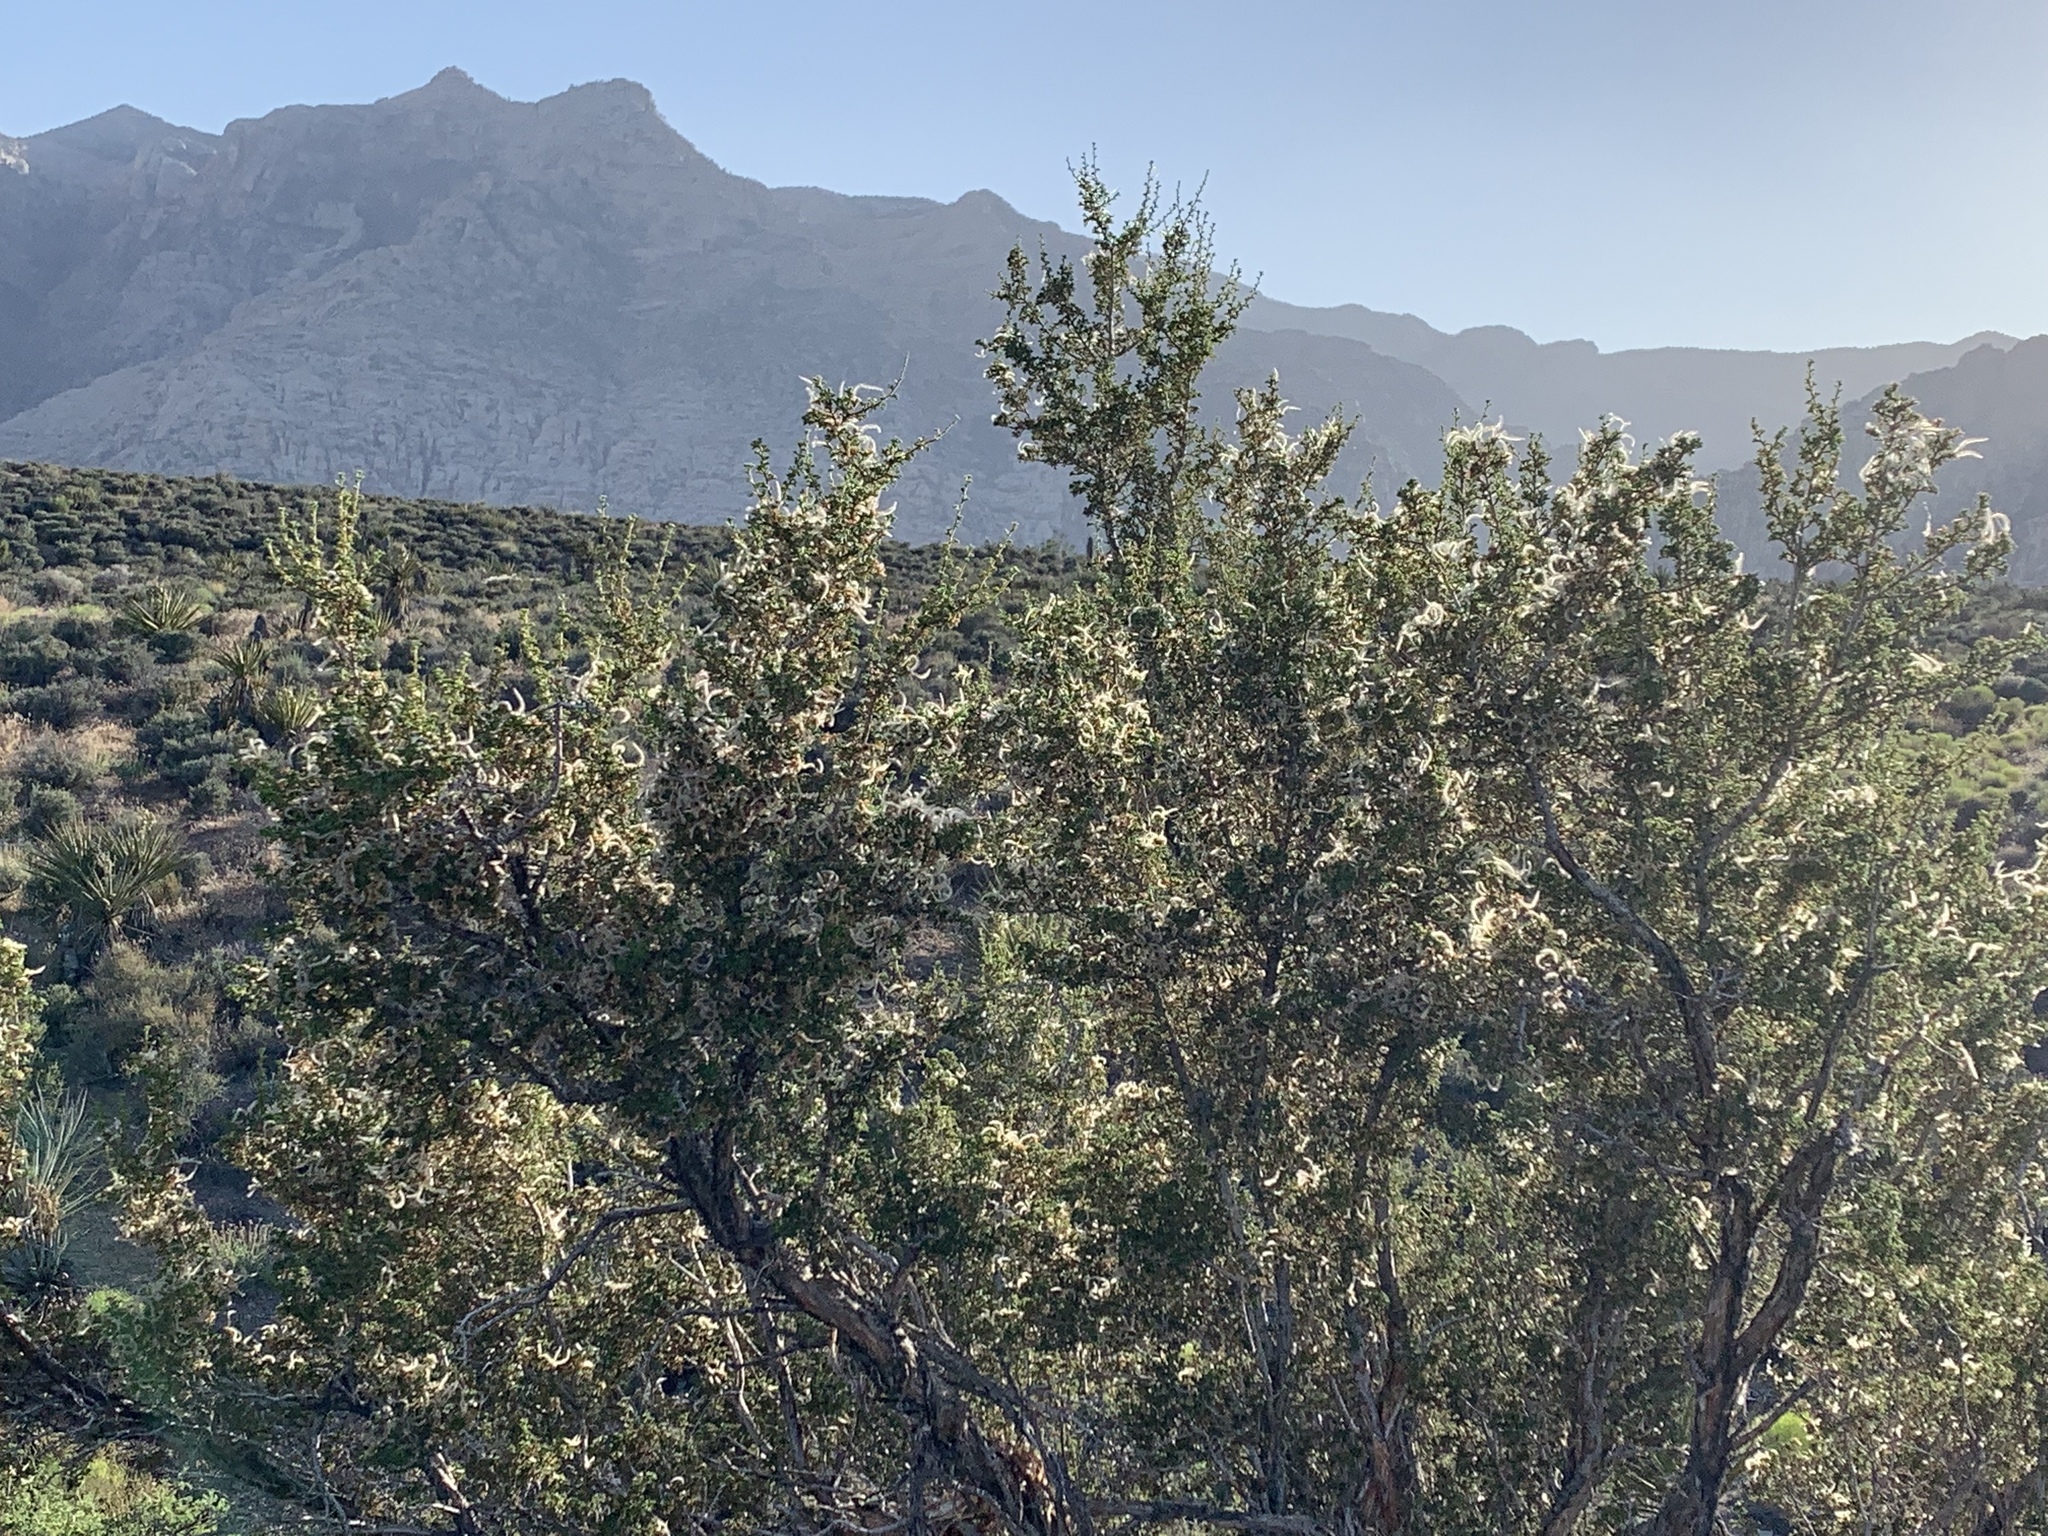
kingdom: Plantae
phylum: Tracheophyta
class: Magnoliopsida
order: Rosales
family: Rosaceae
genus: Purshia
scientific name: Purshia stansburiana
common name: Stansbury's cliffrose
